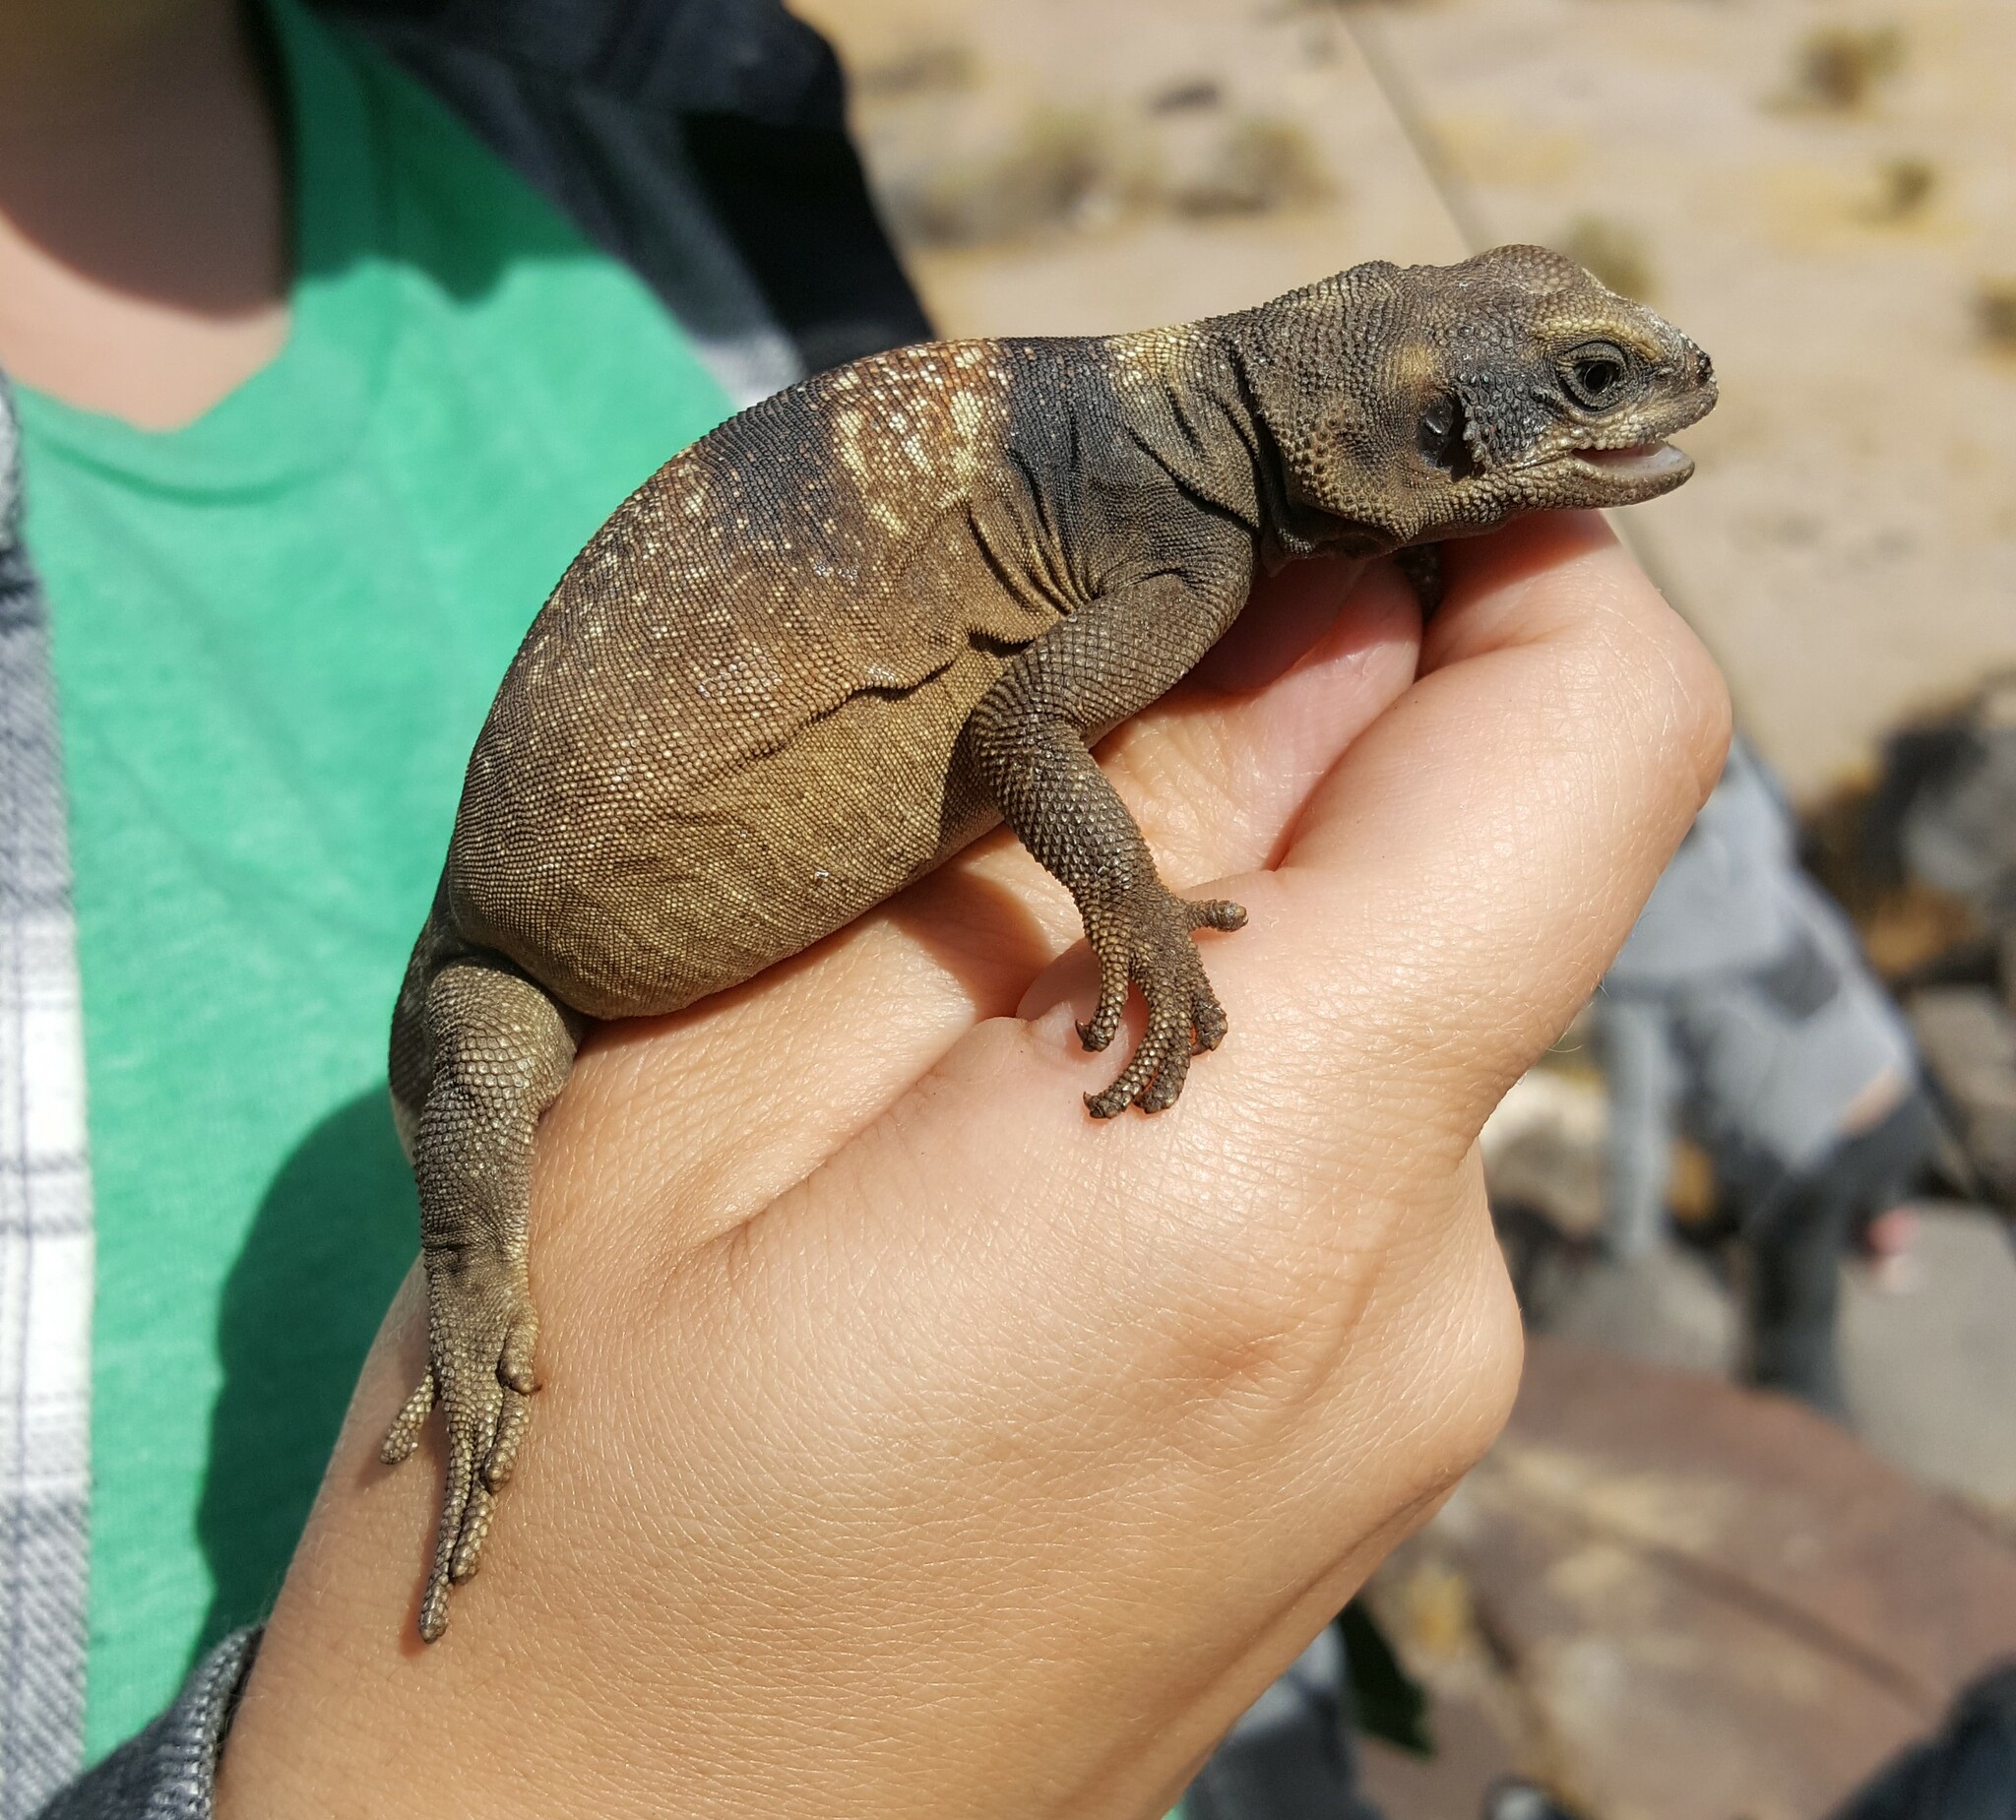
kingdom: Animalia
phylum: Chordata
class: Squamata
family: Iguanidae
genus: Sauromalus
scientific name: Sauromalus ater
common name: Northern chuckwalla
